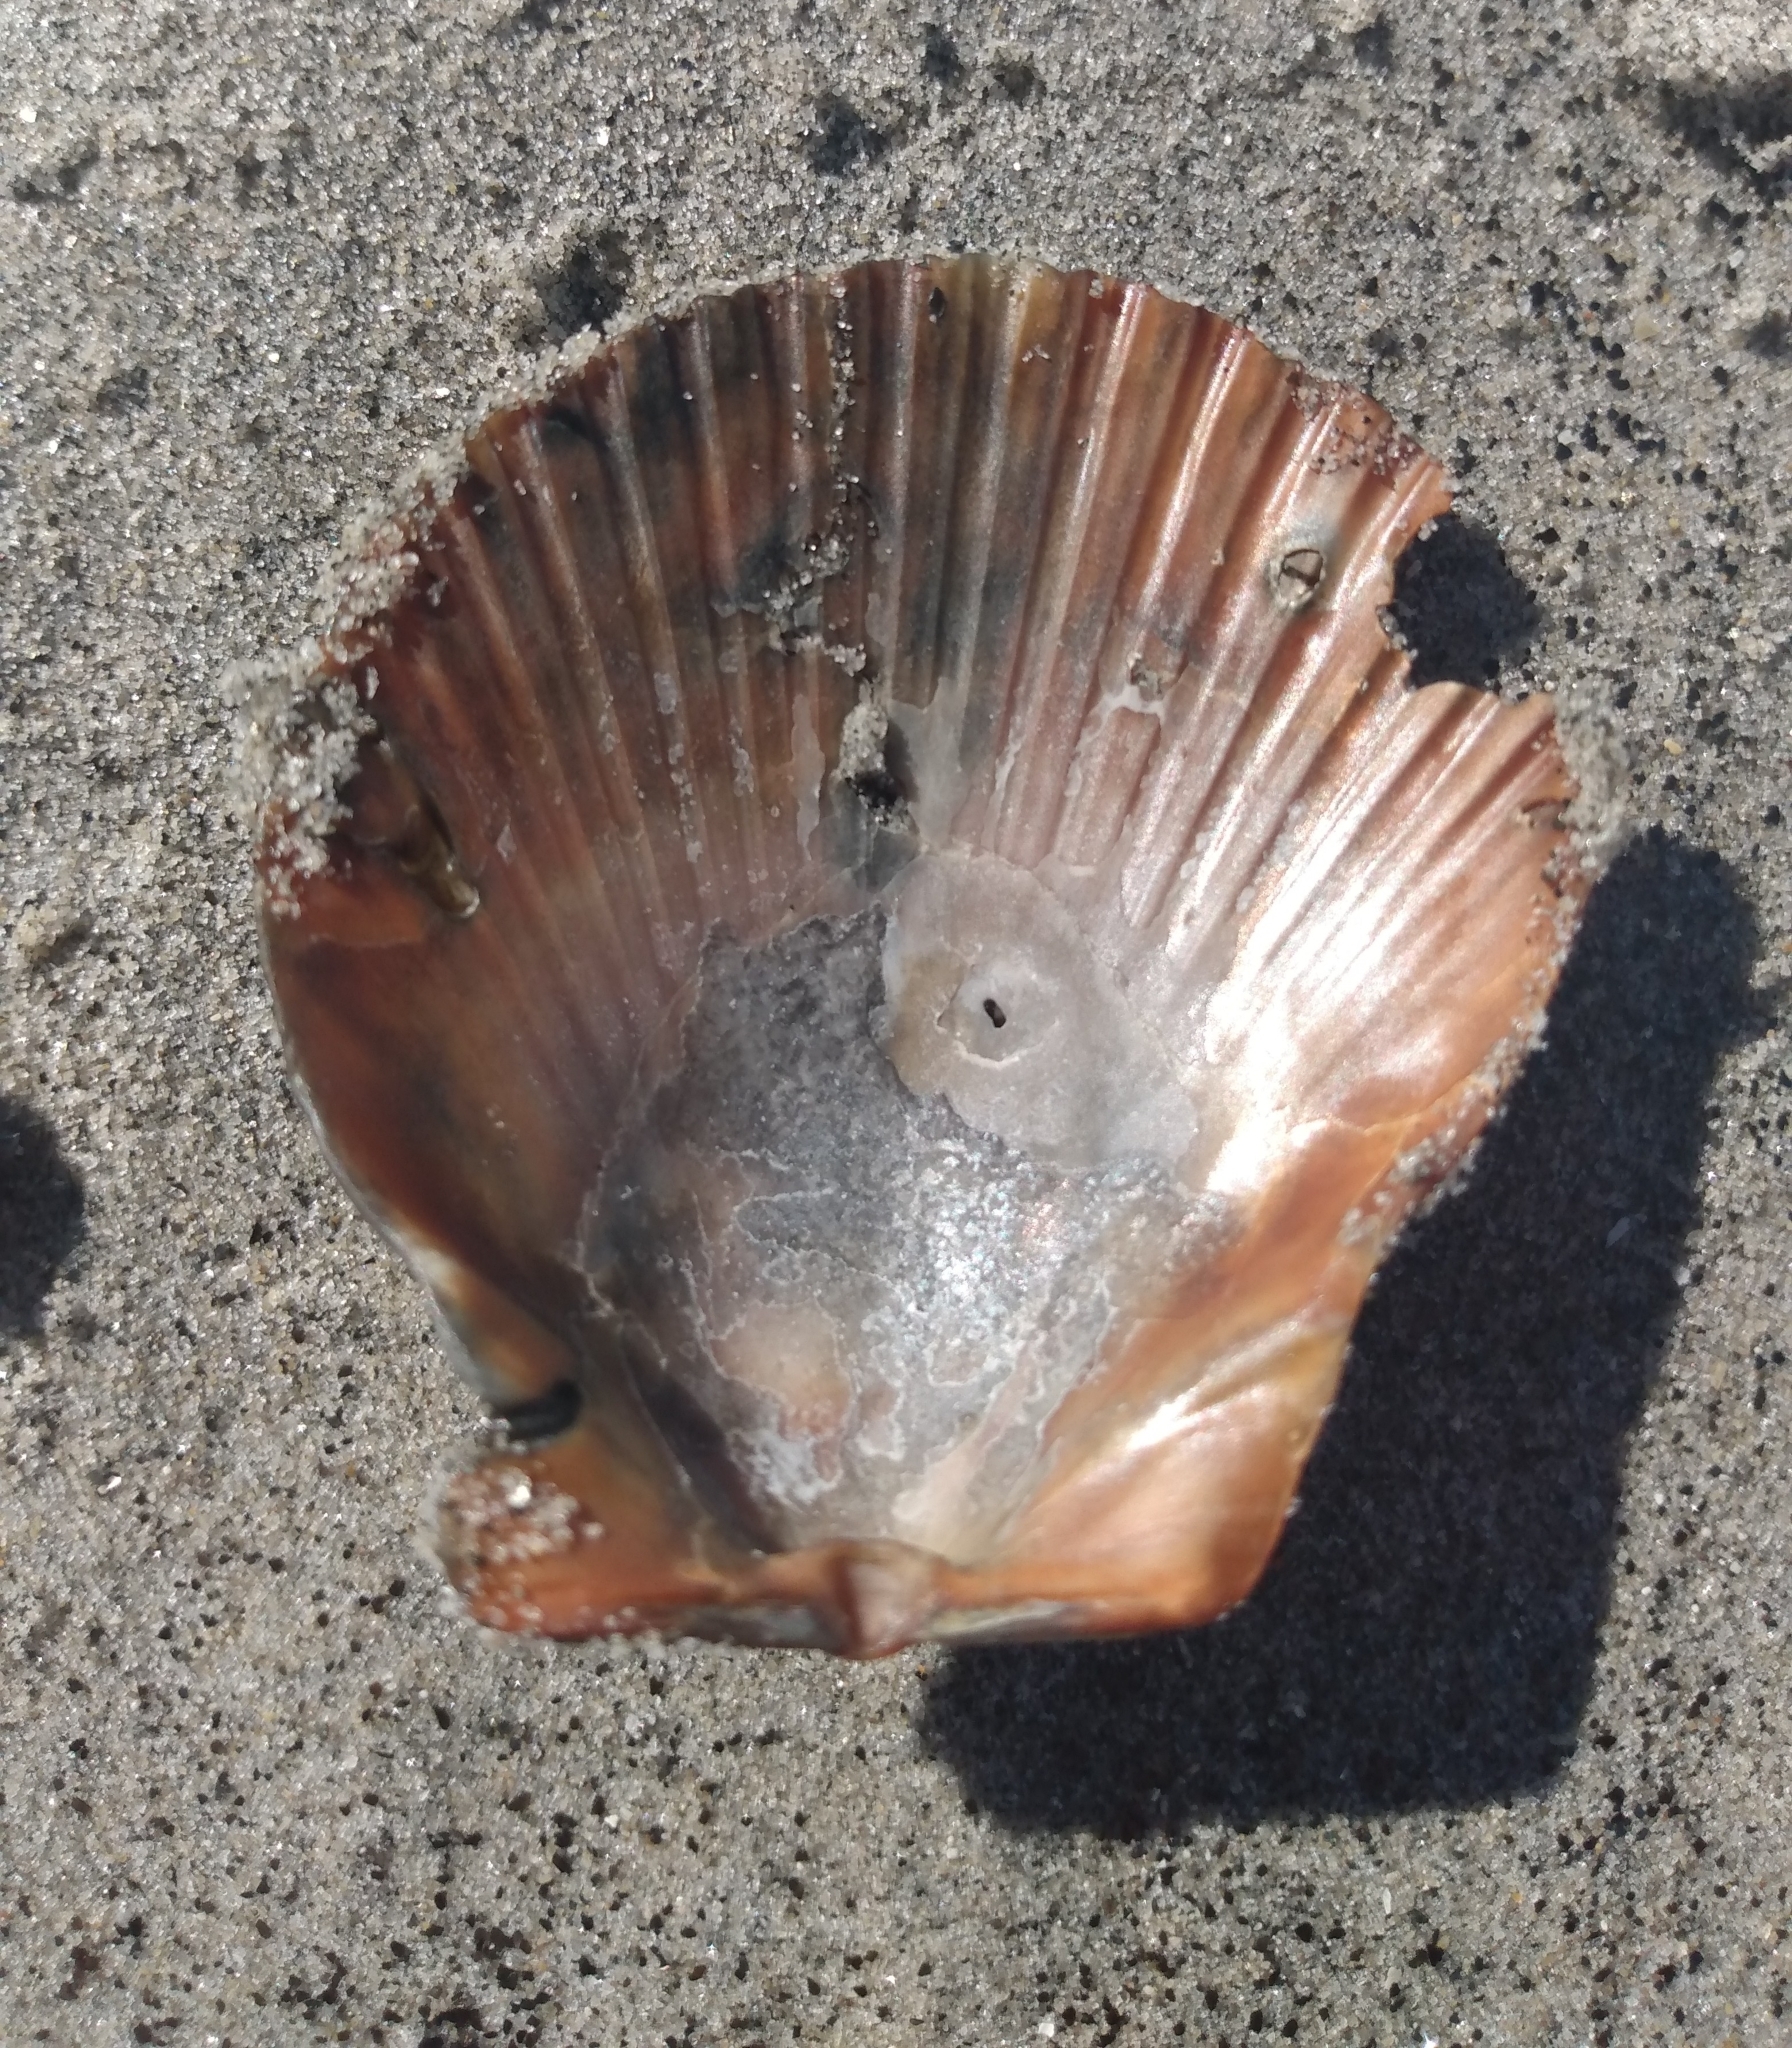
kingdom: Animalia
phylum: Mollusca
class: Bivalvia
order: Pectinida
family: Pectinidae
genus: Argopecten
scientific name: Argopecten ventricosus
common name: Catarina scallop
